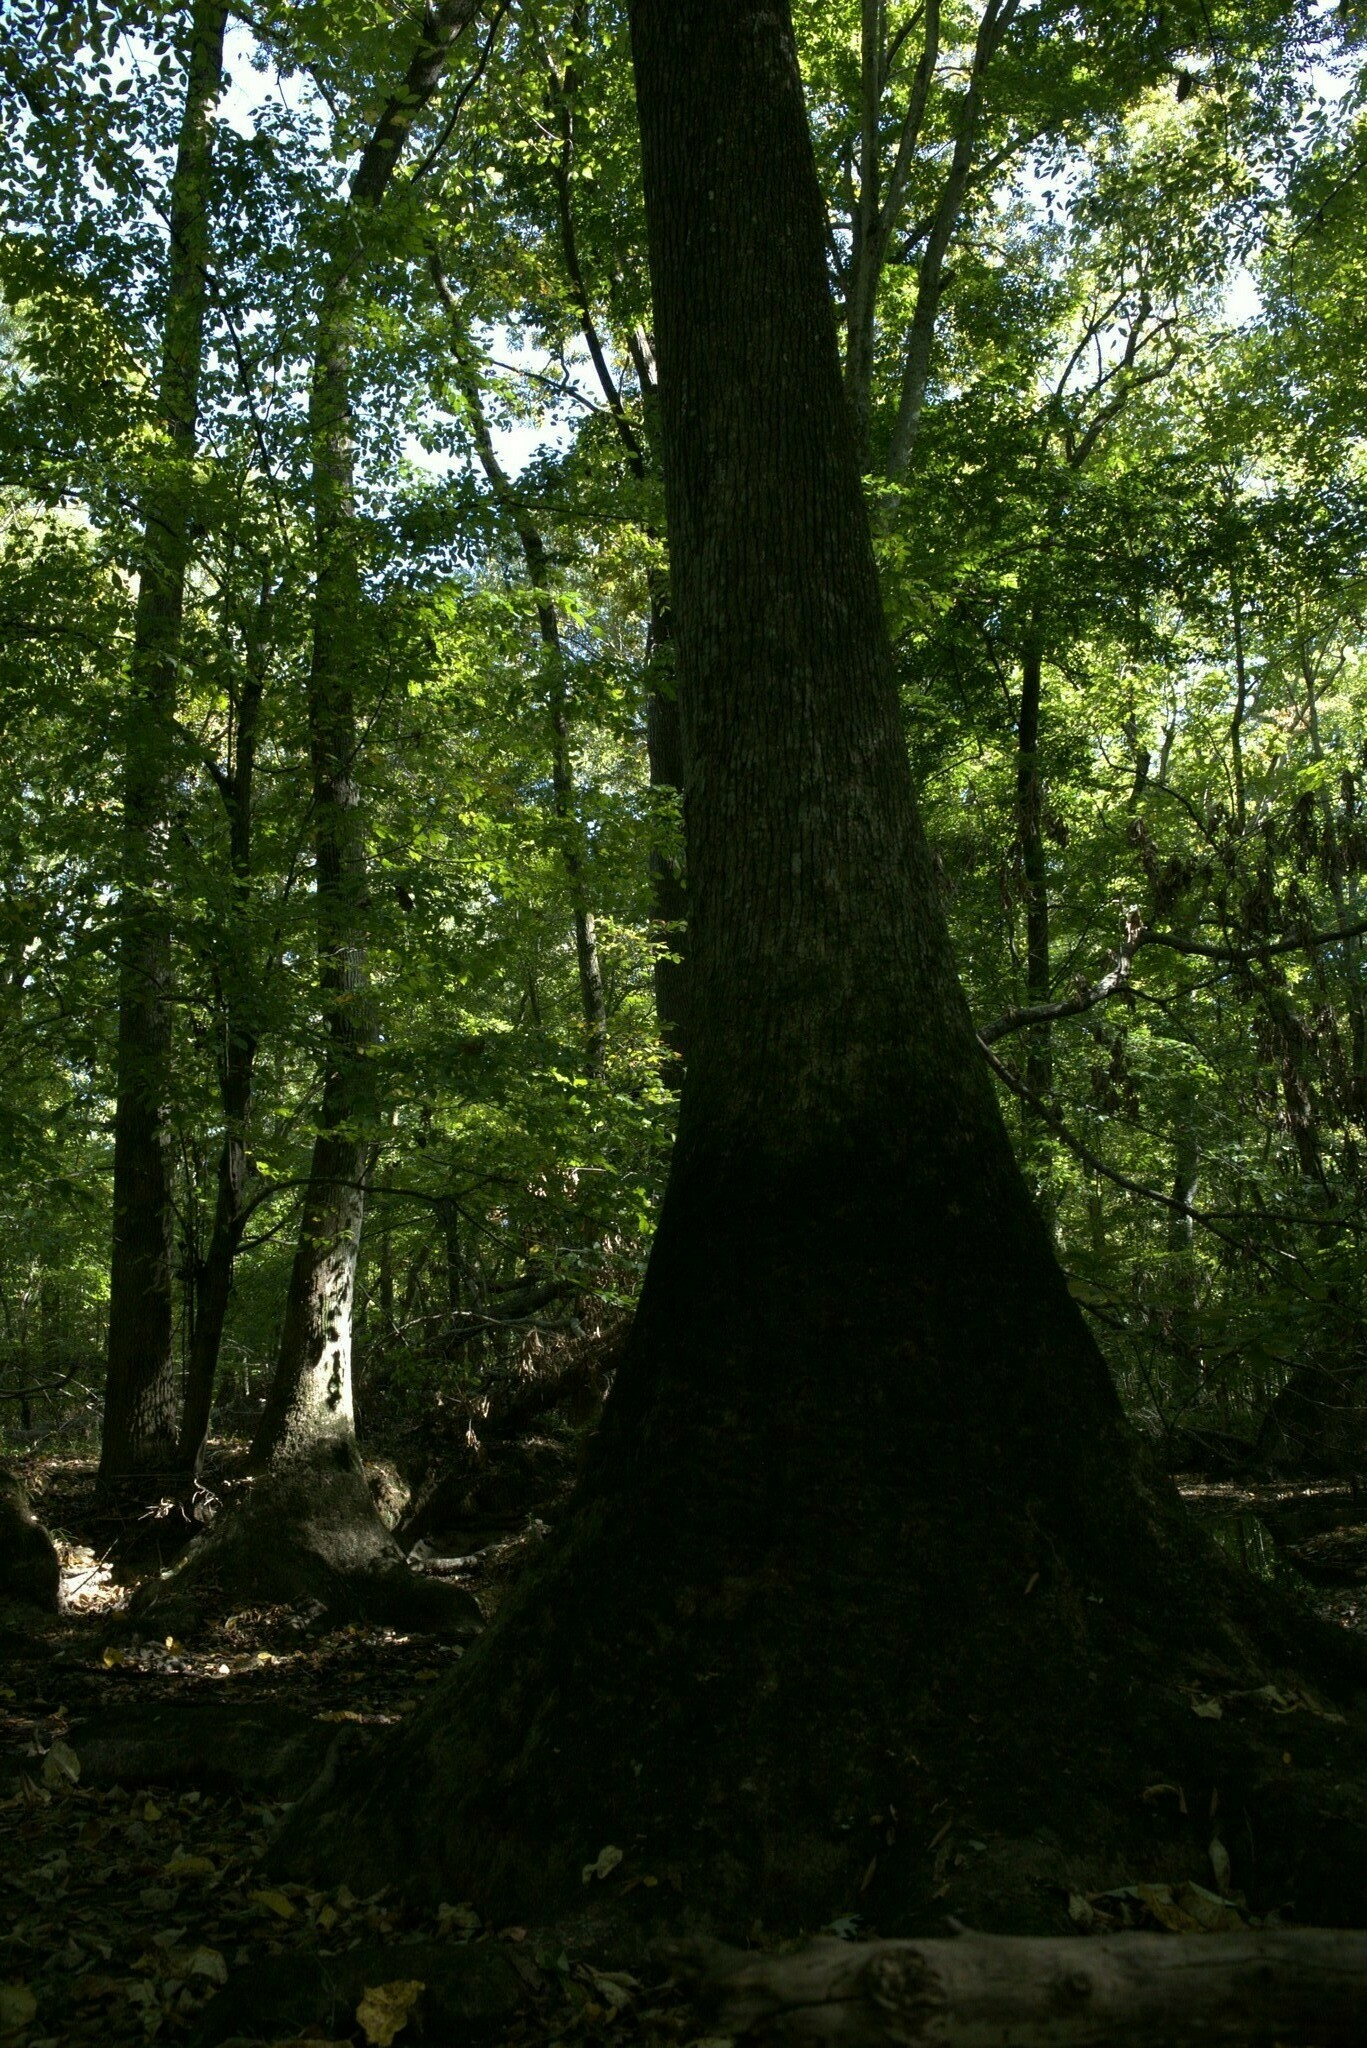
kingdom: Plantae
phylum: Tracheophyta
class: Magnoliopsida
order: Cornales
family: Nyssaceae
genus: Nyssa
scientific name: Nyssa aquatica
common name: Swamp tupelo
